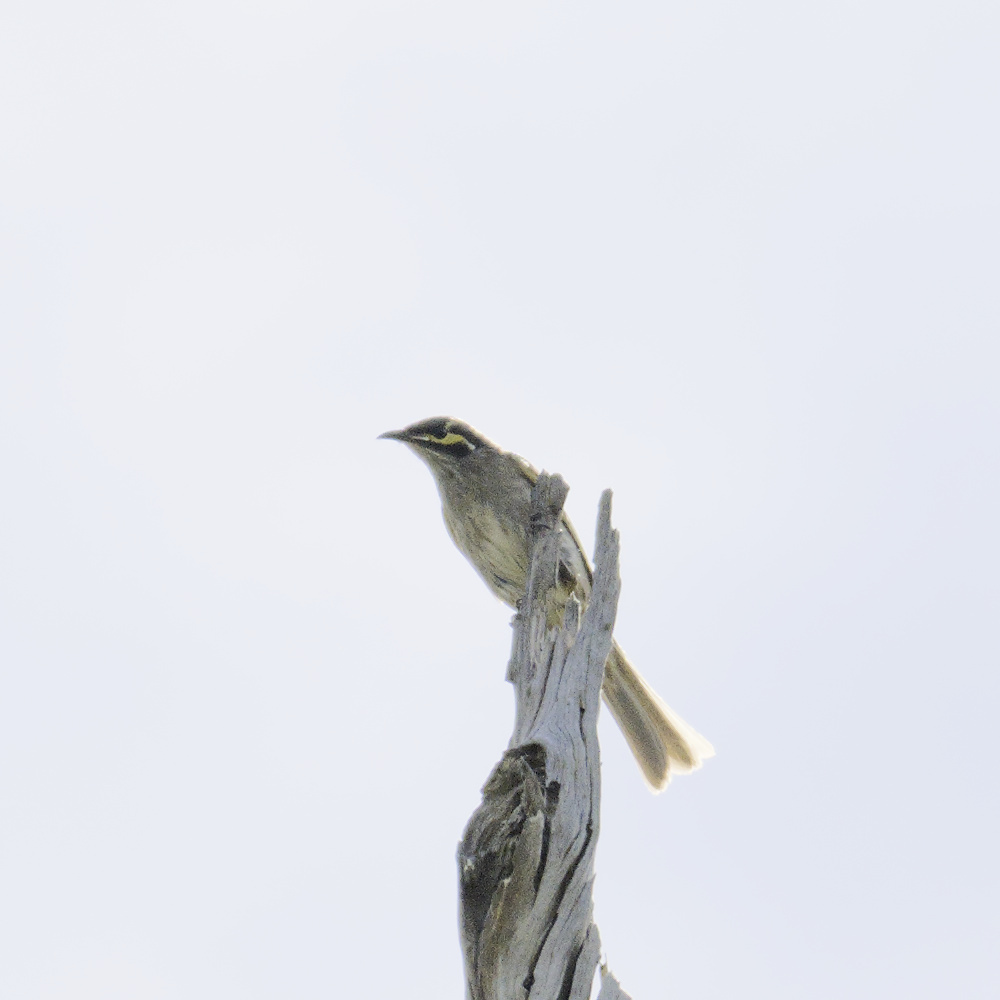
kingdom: Animalia
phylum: Chordata
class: Aves
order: Passeriformes
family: Meliphagidae
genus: Caligavis
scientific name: Caligavis chrysops
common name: Yellow-faced honeyeater
